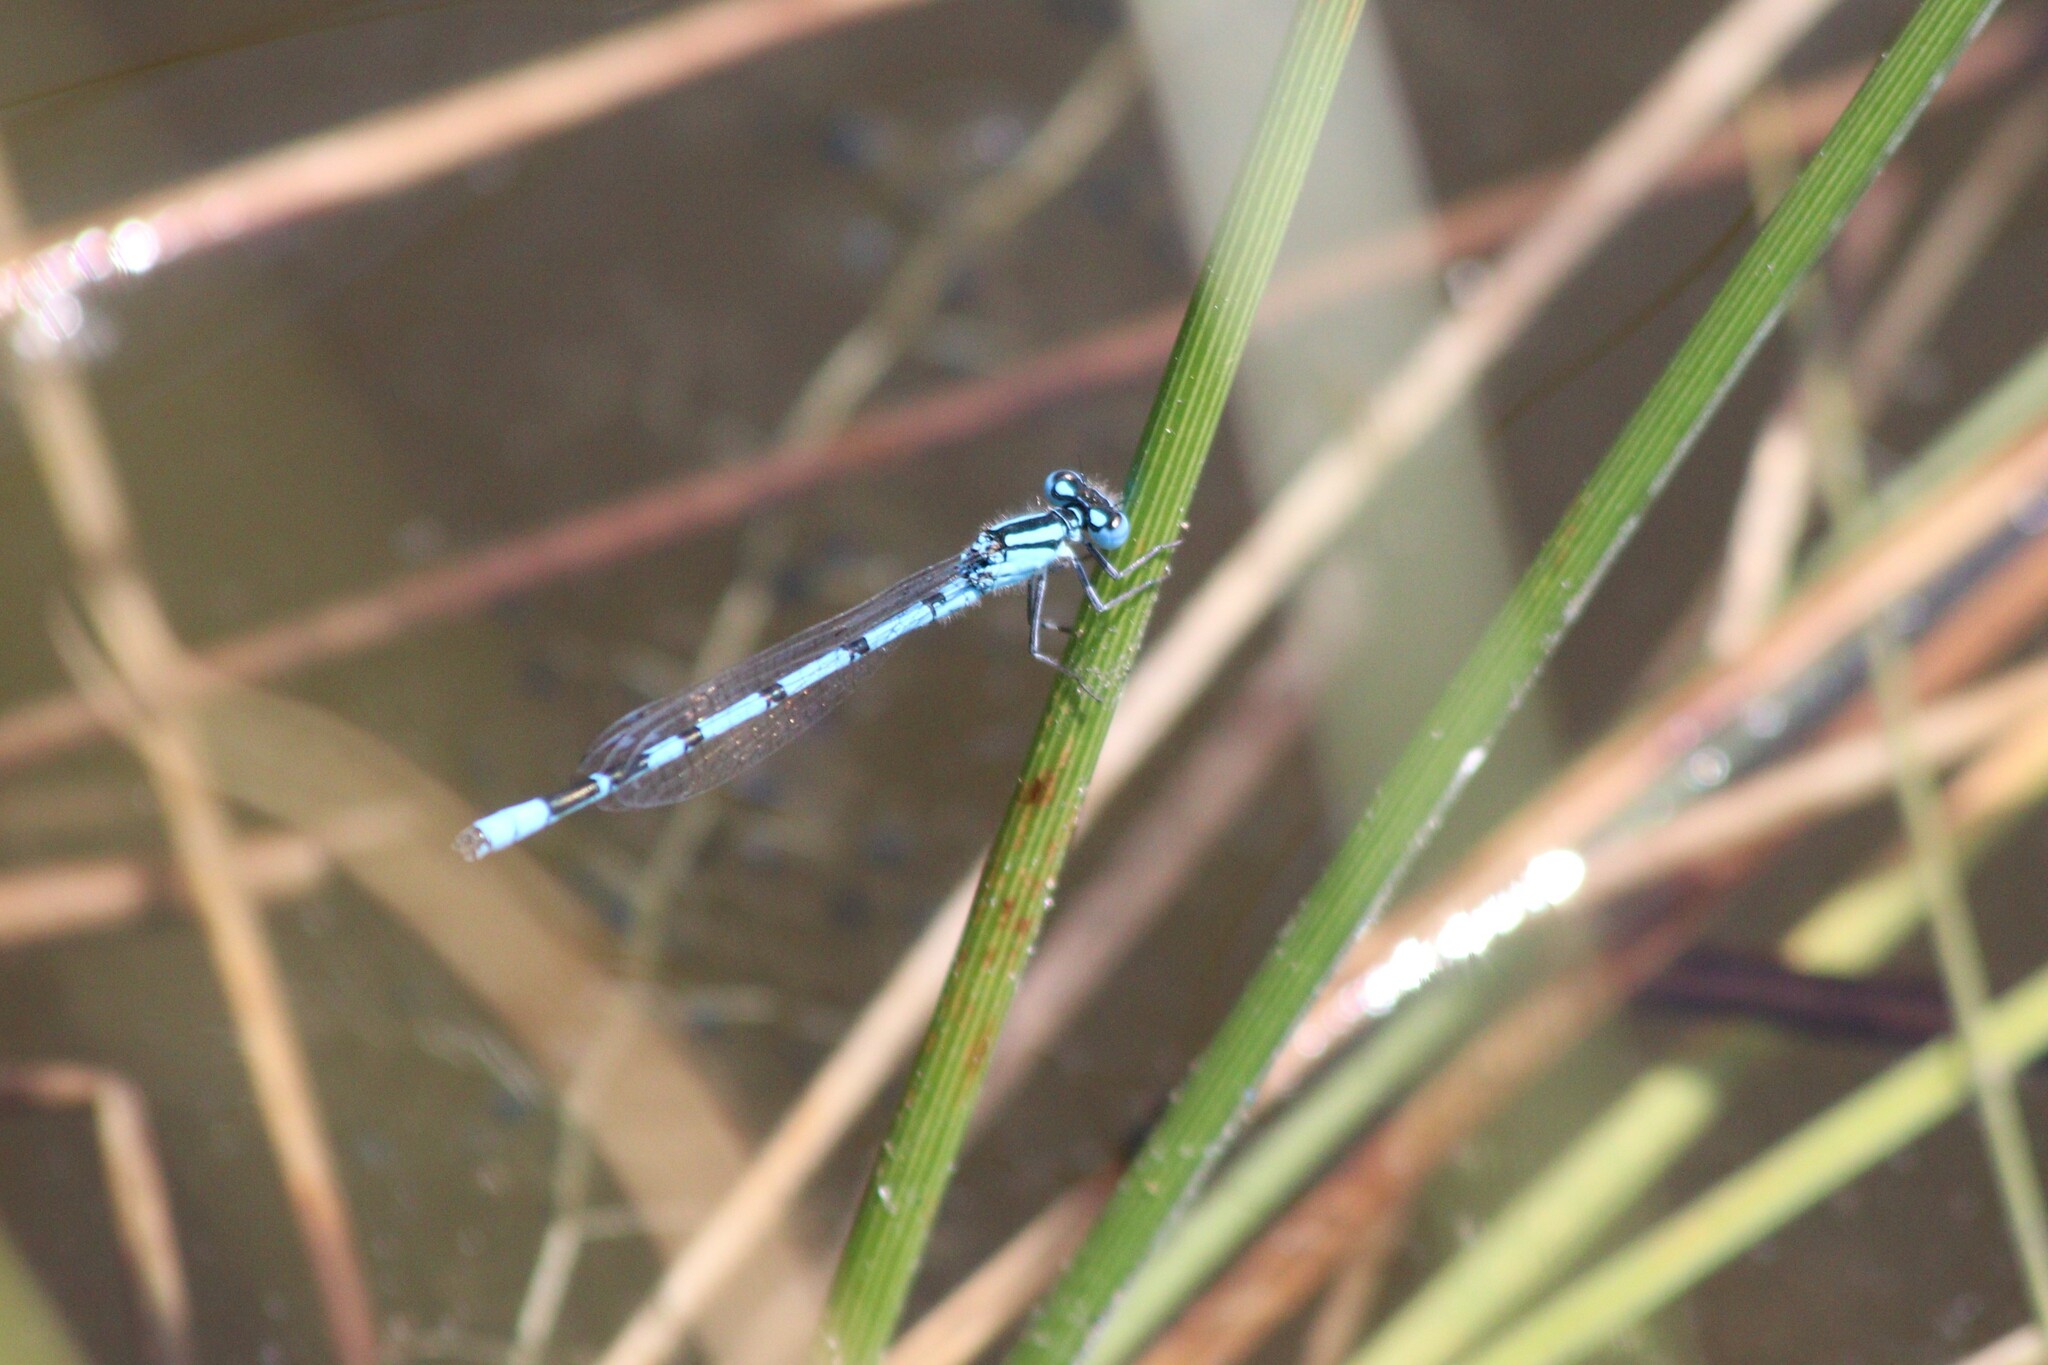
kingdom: Animalia
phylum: Arthropoda
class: Insecta
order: Odonata
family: Coenagrionidae
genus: Enallagma
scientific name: Enallagma cyathigerum
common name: Common blue damselfly
